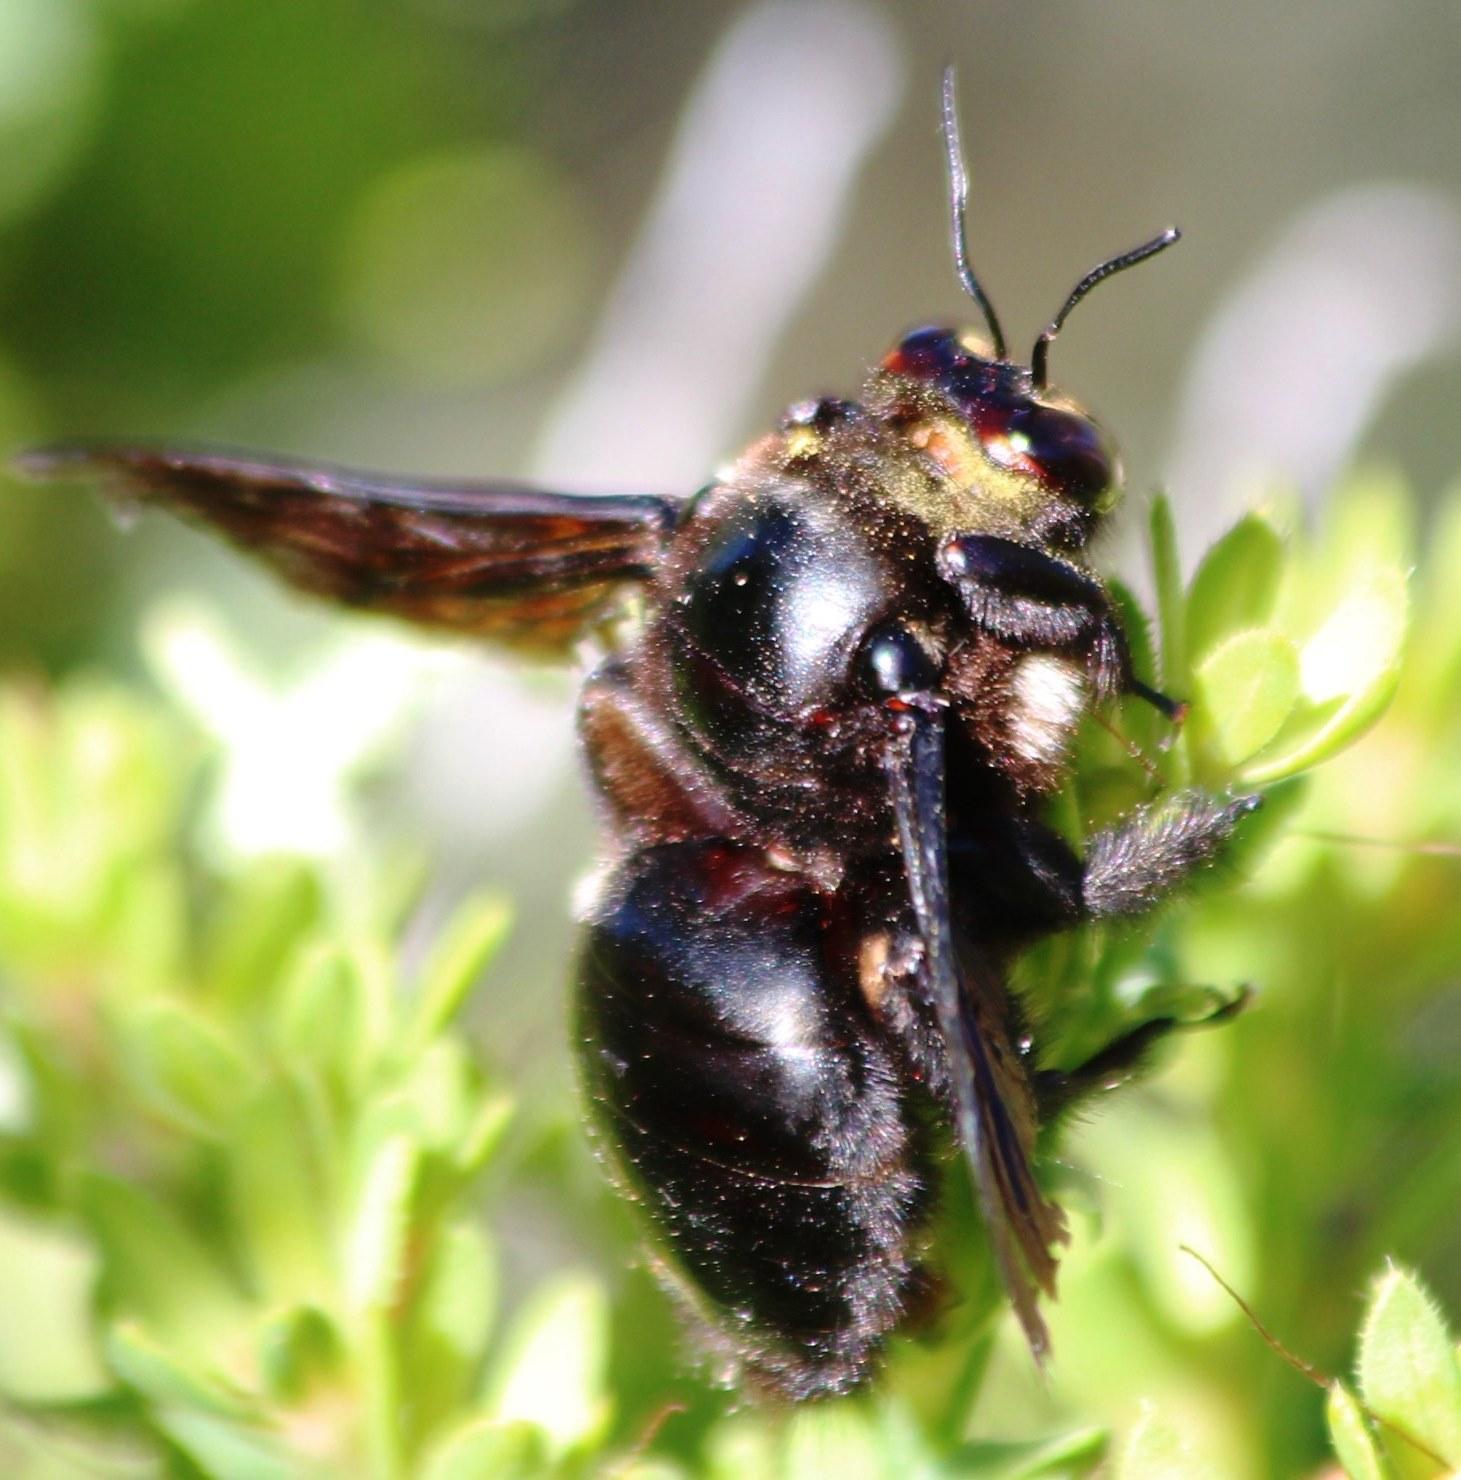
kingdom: Animalia
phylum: Arthropoda
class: Insecta
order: Hymenoptera
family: Apidae
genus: Xylocopa
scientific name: Xylocopa capitata
